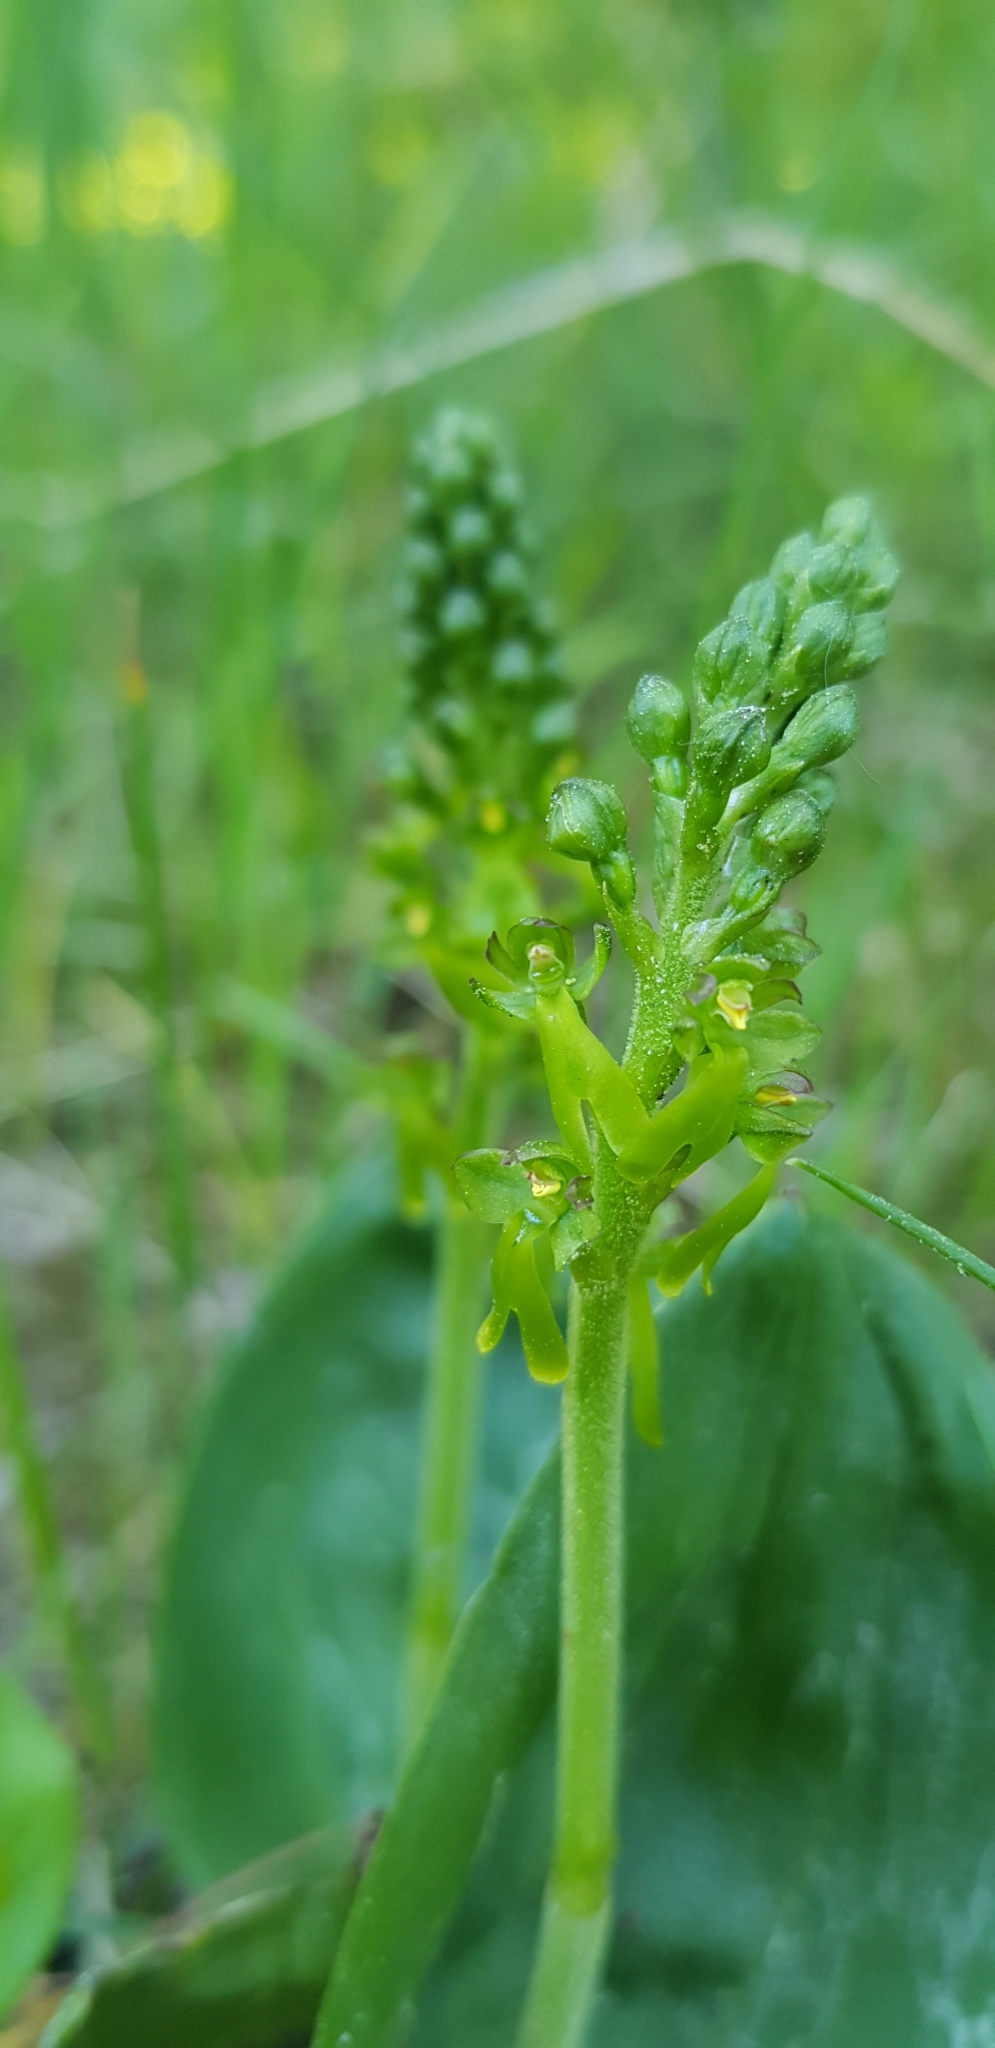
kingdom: Plantae
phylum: Tracheophyta
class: Liliopsida
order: Asparagales
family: Orchidaceae
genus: Neottia
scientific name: Neottia ovata
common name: Common twayblade
